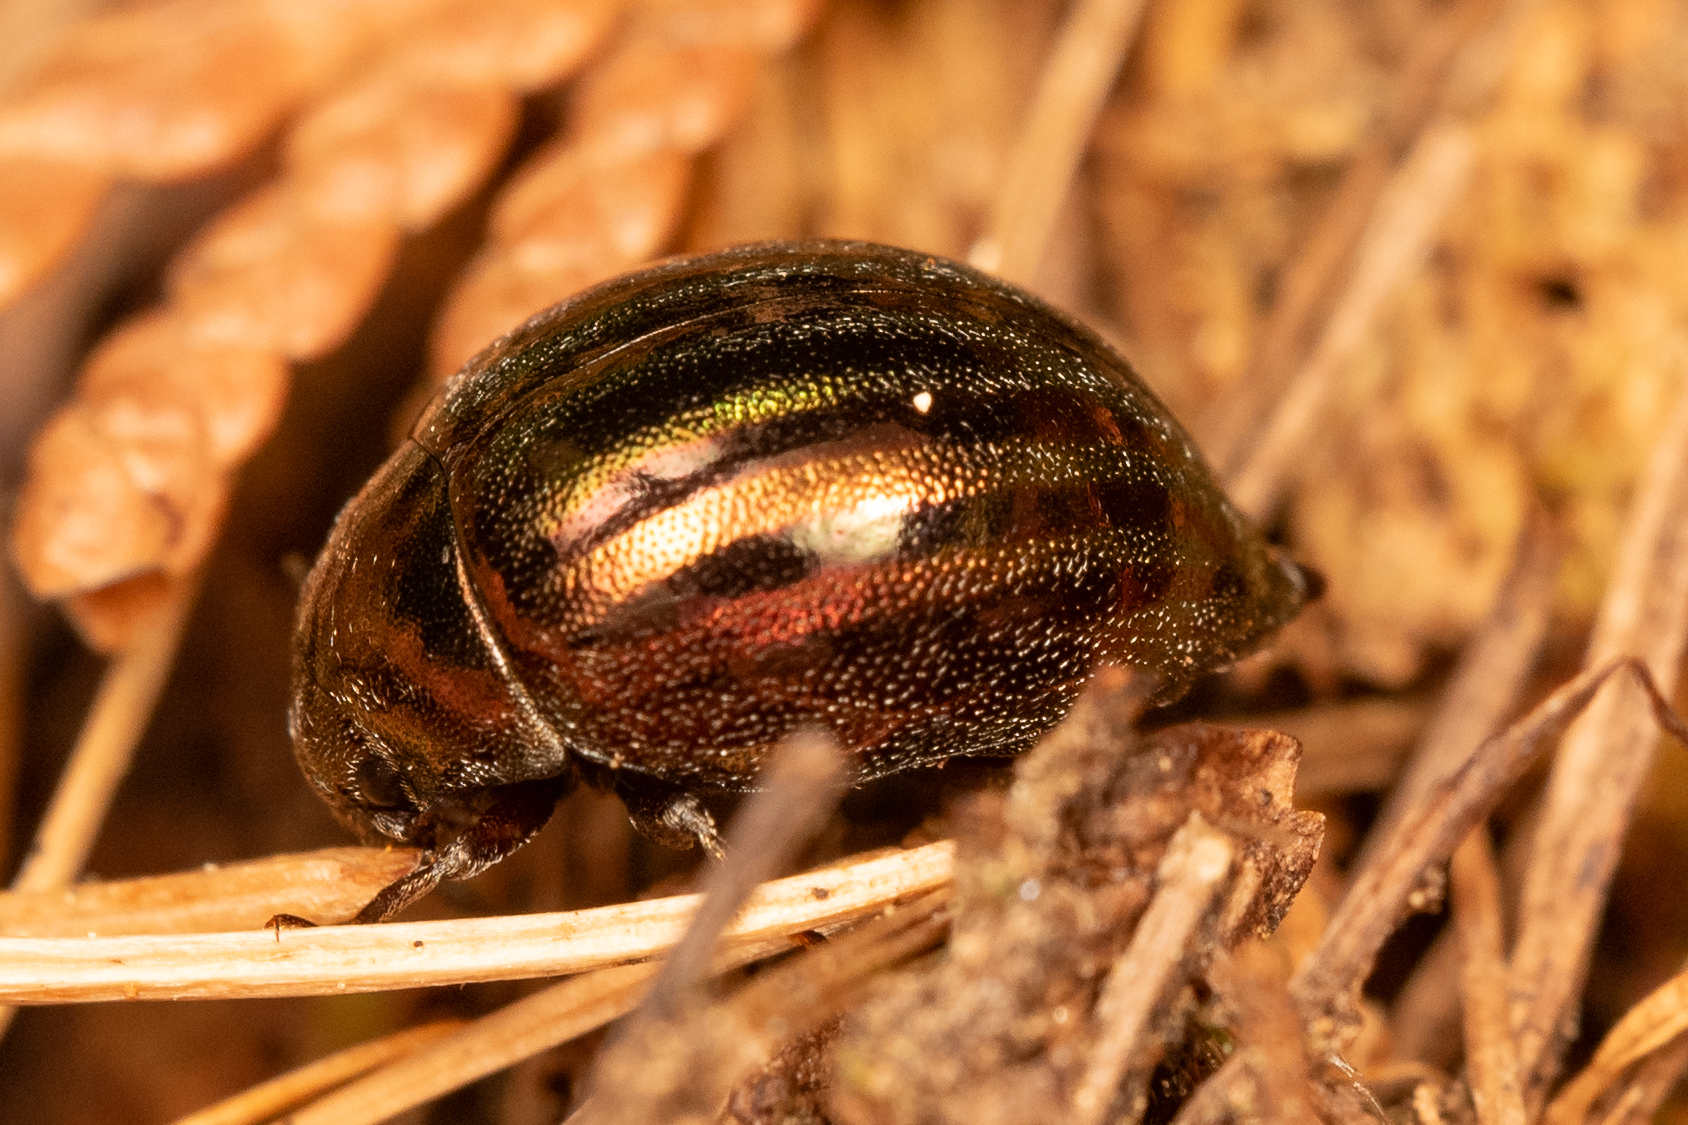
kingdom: Animalia
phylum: Arthropoda
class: Insecta
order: Coleoptera
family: Byrrhidae
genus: Eusomalia
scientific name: Eusomalia lecontei
